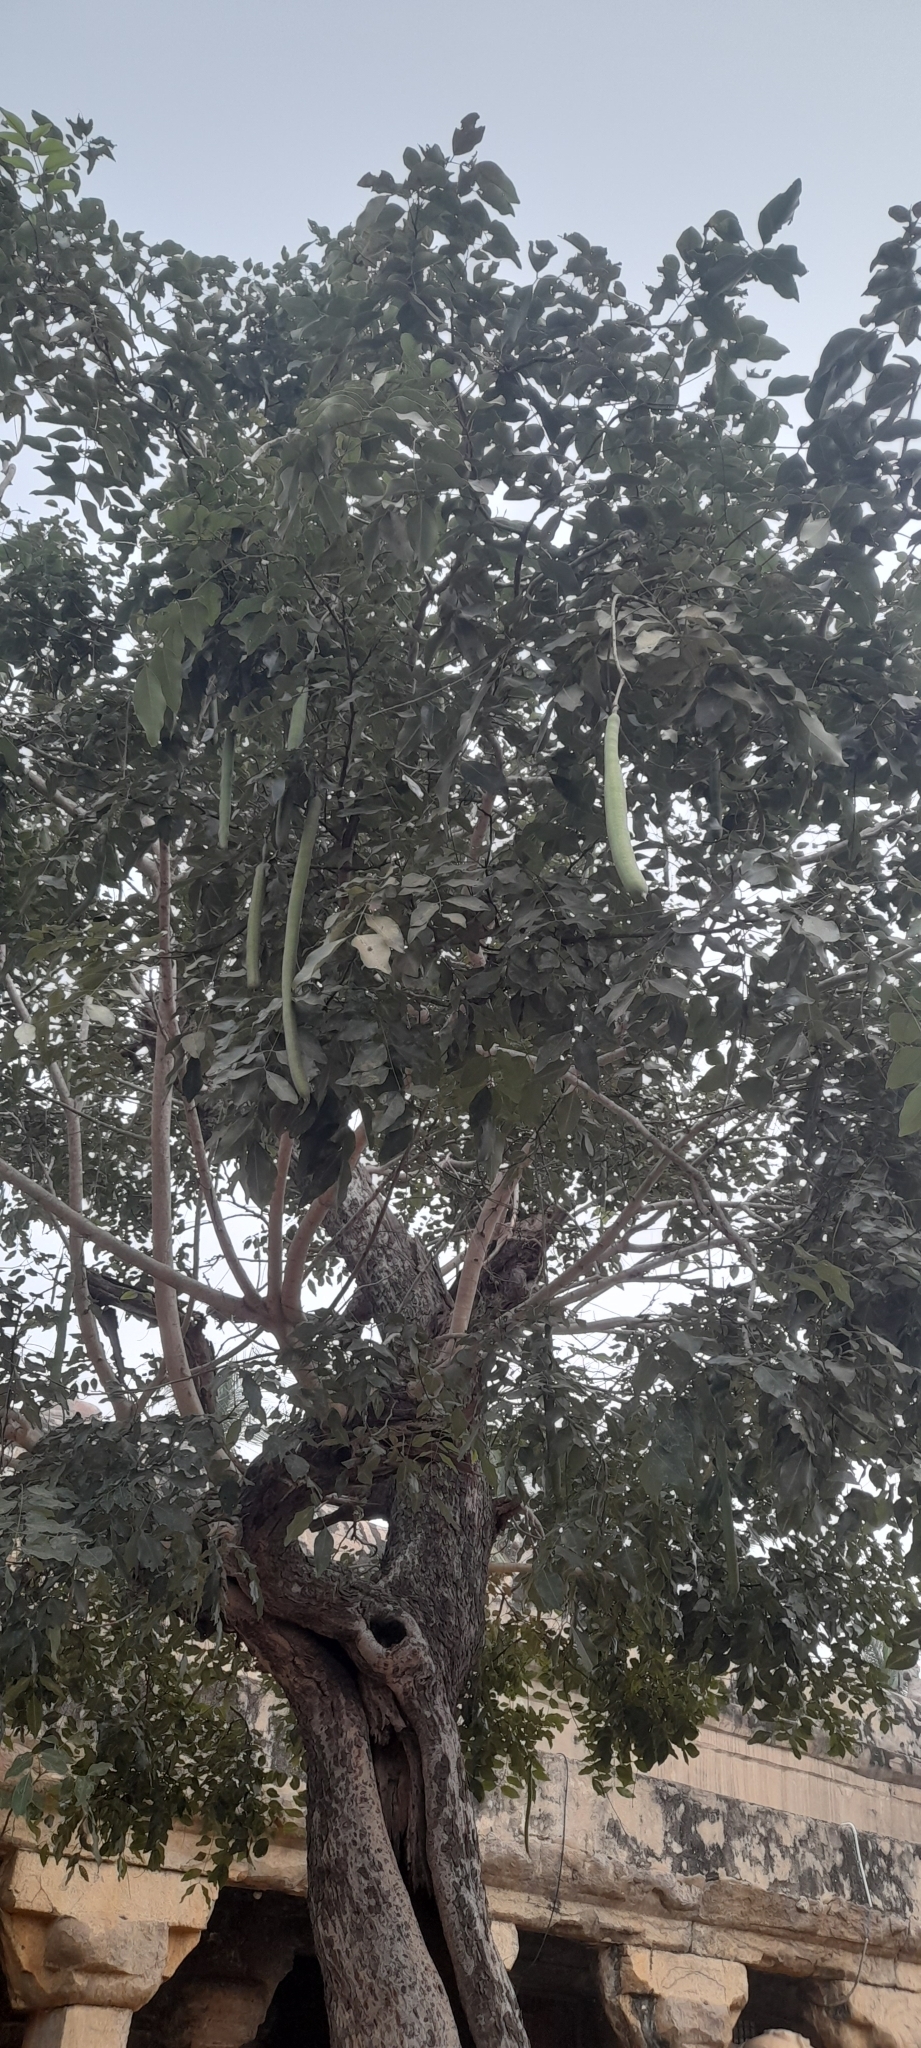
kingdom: Plantae
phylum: Tracheophyta
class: Magnoliopsida
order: Fabales
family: Fabaceae
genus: Cassia
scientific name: Cassia fistula
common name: Golden shower
